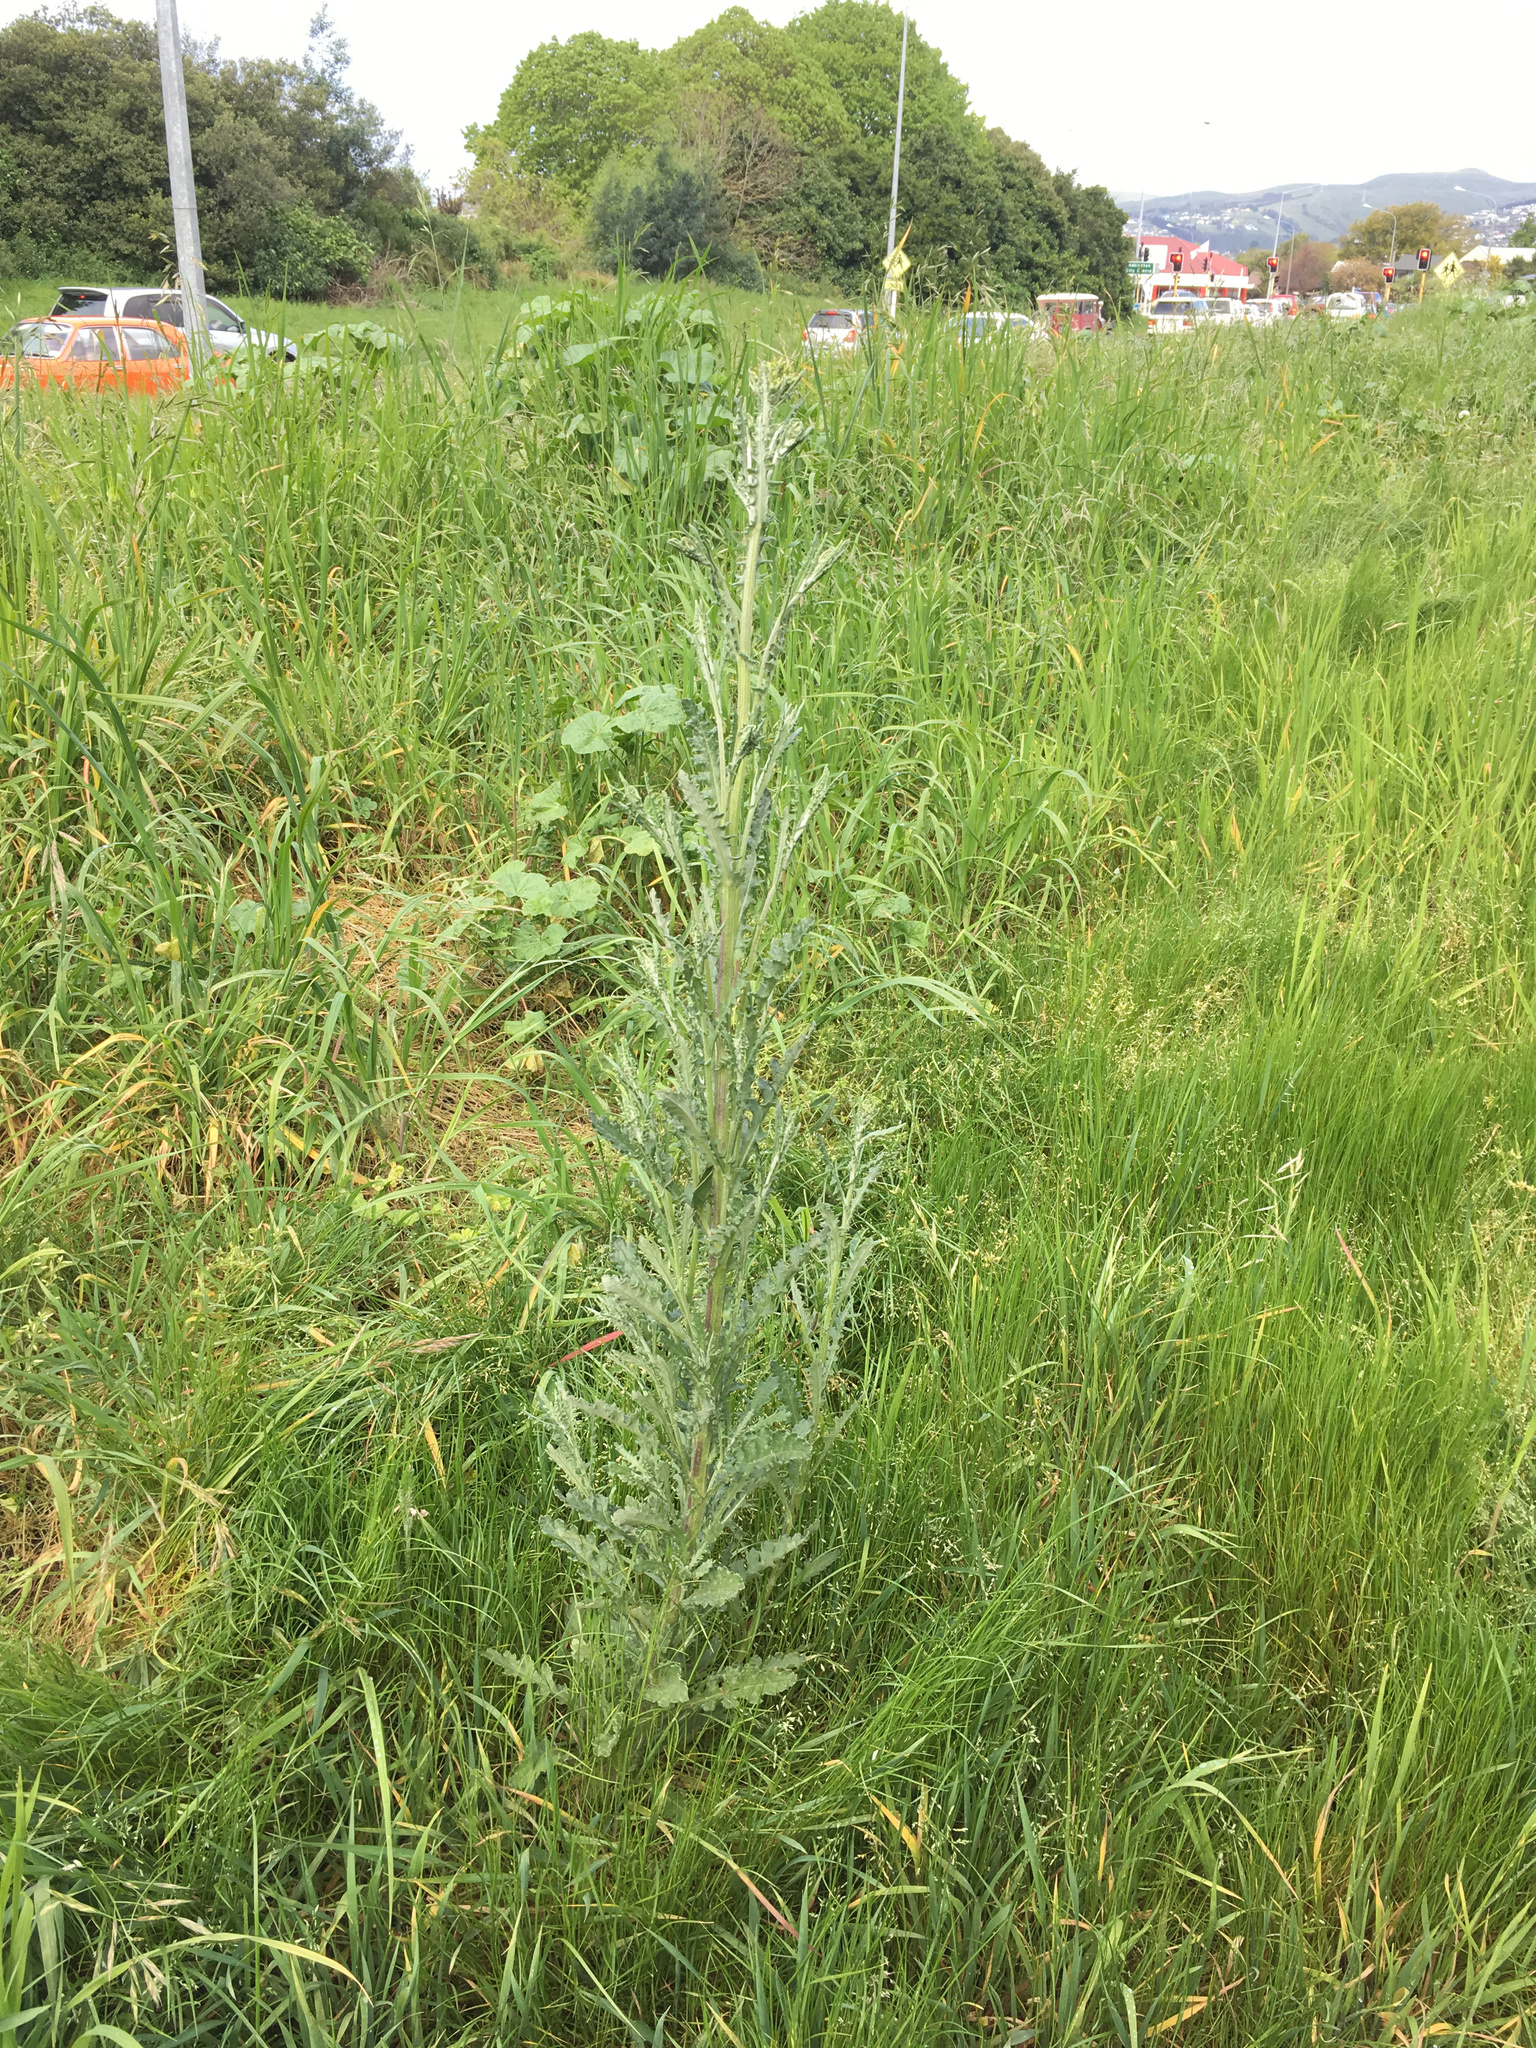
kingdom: Plantae
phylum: Tracheophyta
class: Magnoliopsida
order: Asterales
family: Asteraceae
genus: Senecio
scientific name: Senecio glomeratus
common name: Cutleaf burnweed
